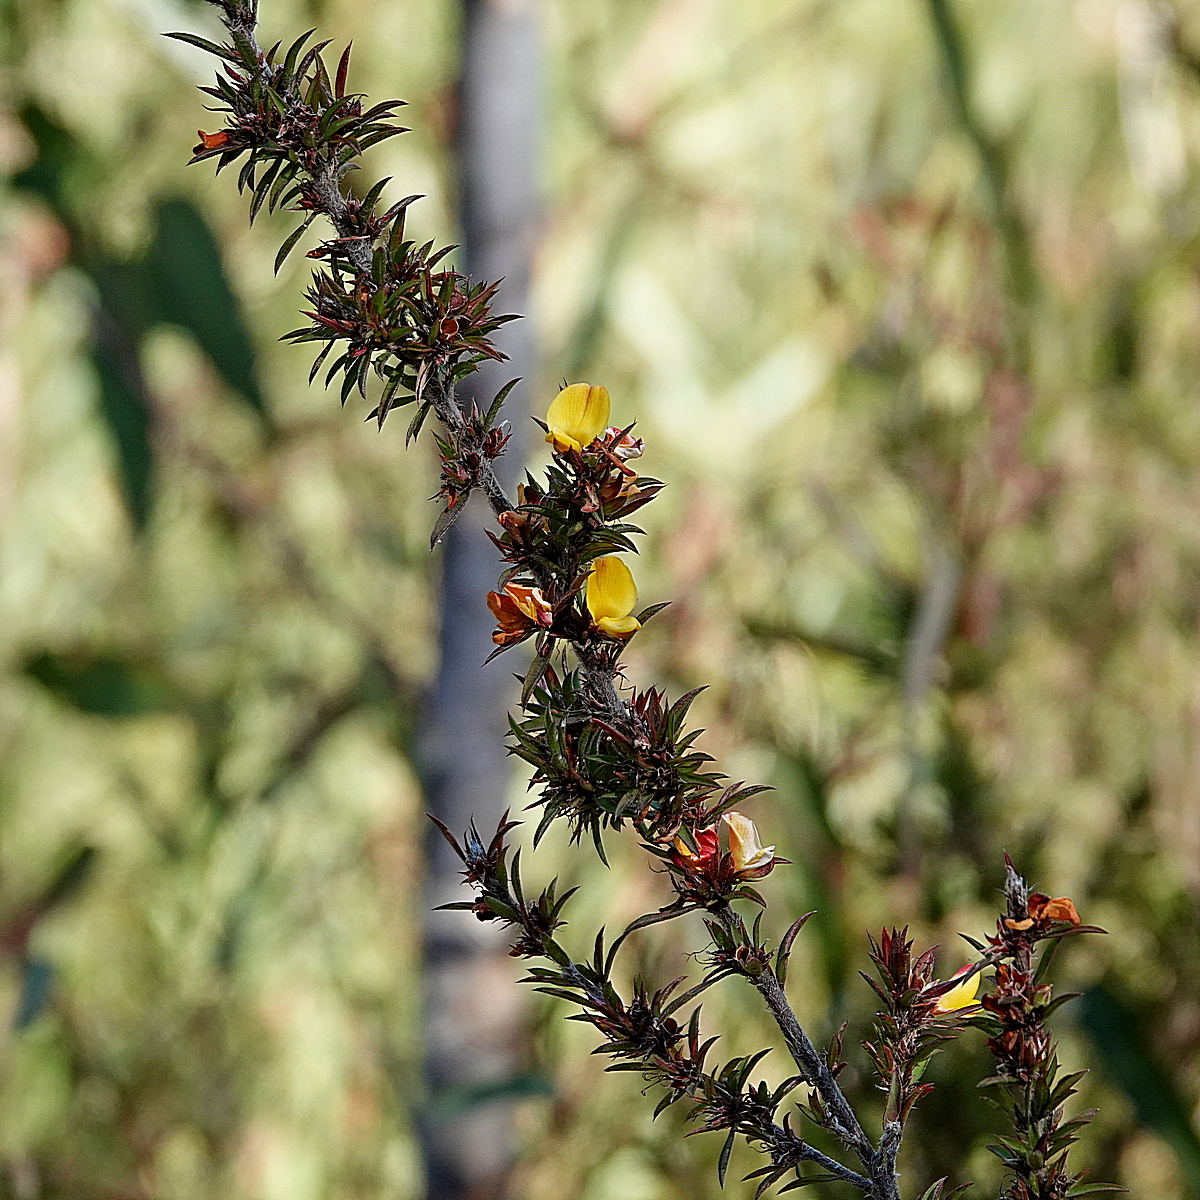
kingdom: Plantae
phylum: Tracheophyta
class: Magnoliopsida
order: Fabales
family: Fabaceae
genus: Pultenaea
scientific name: Pultenaea villifera
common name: Yellow bush-pea
